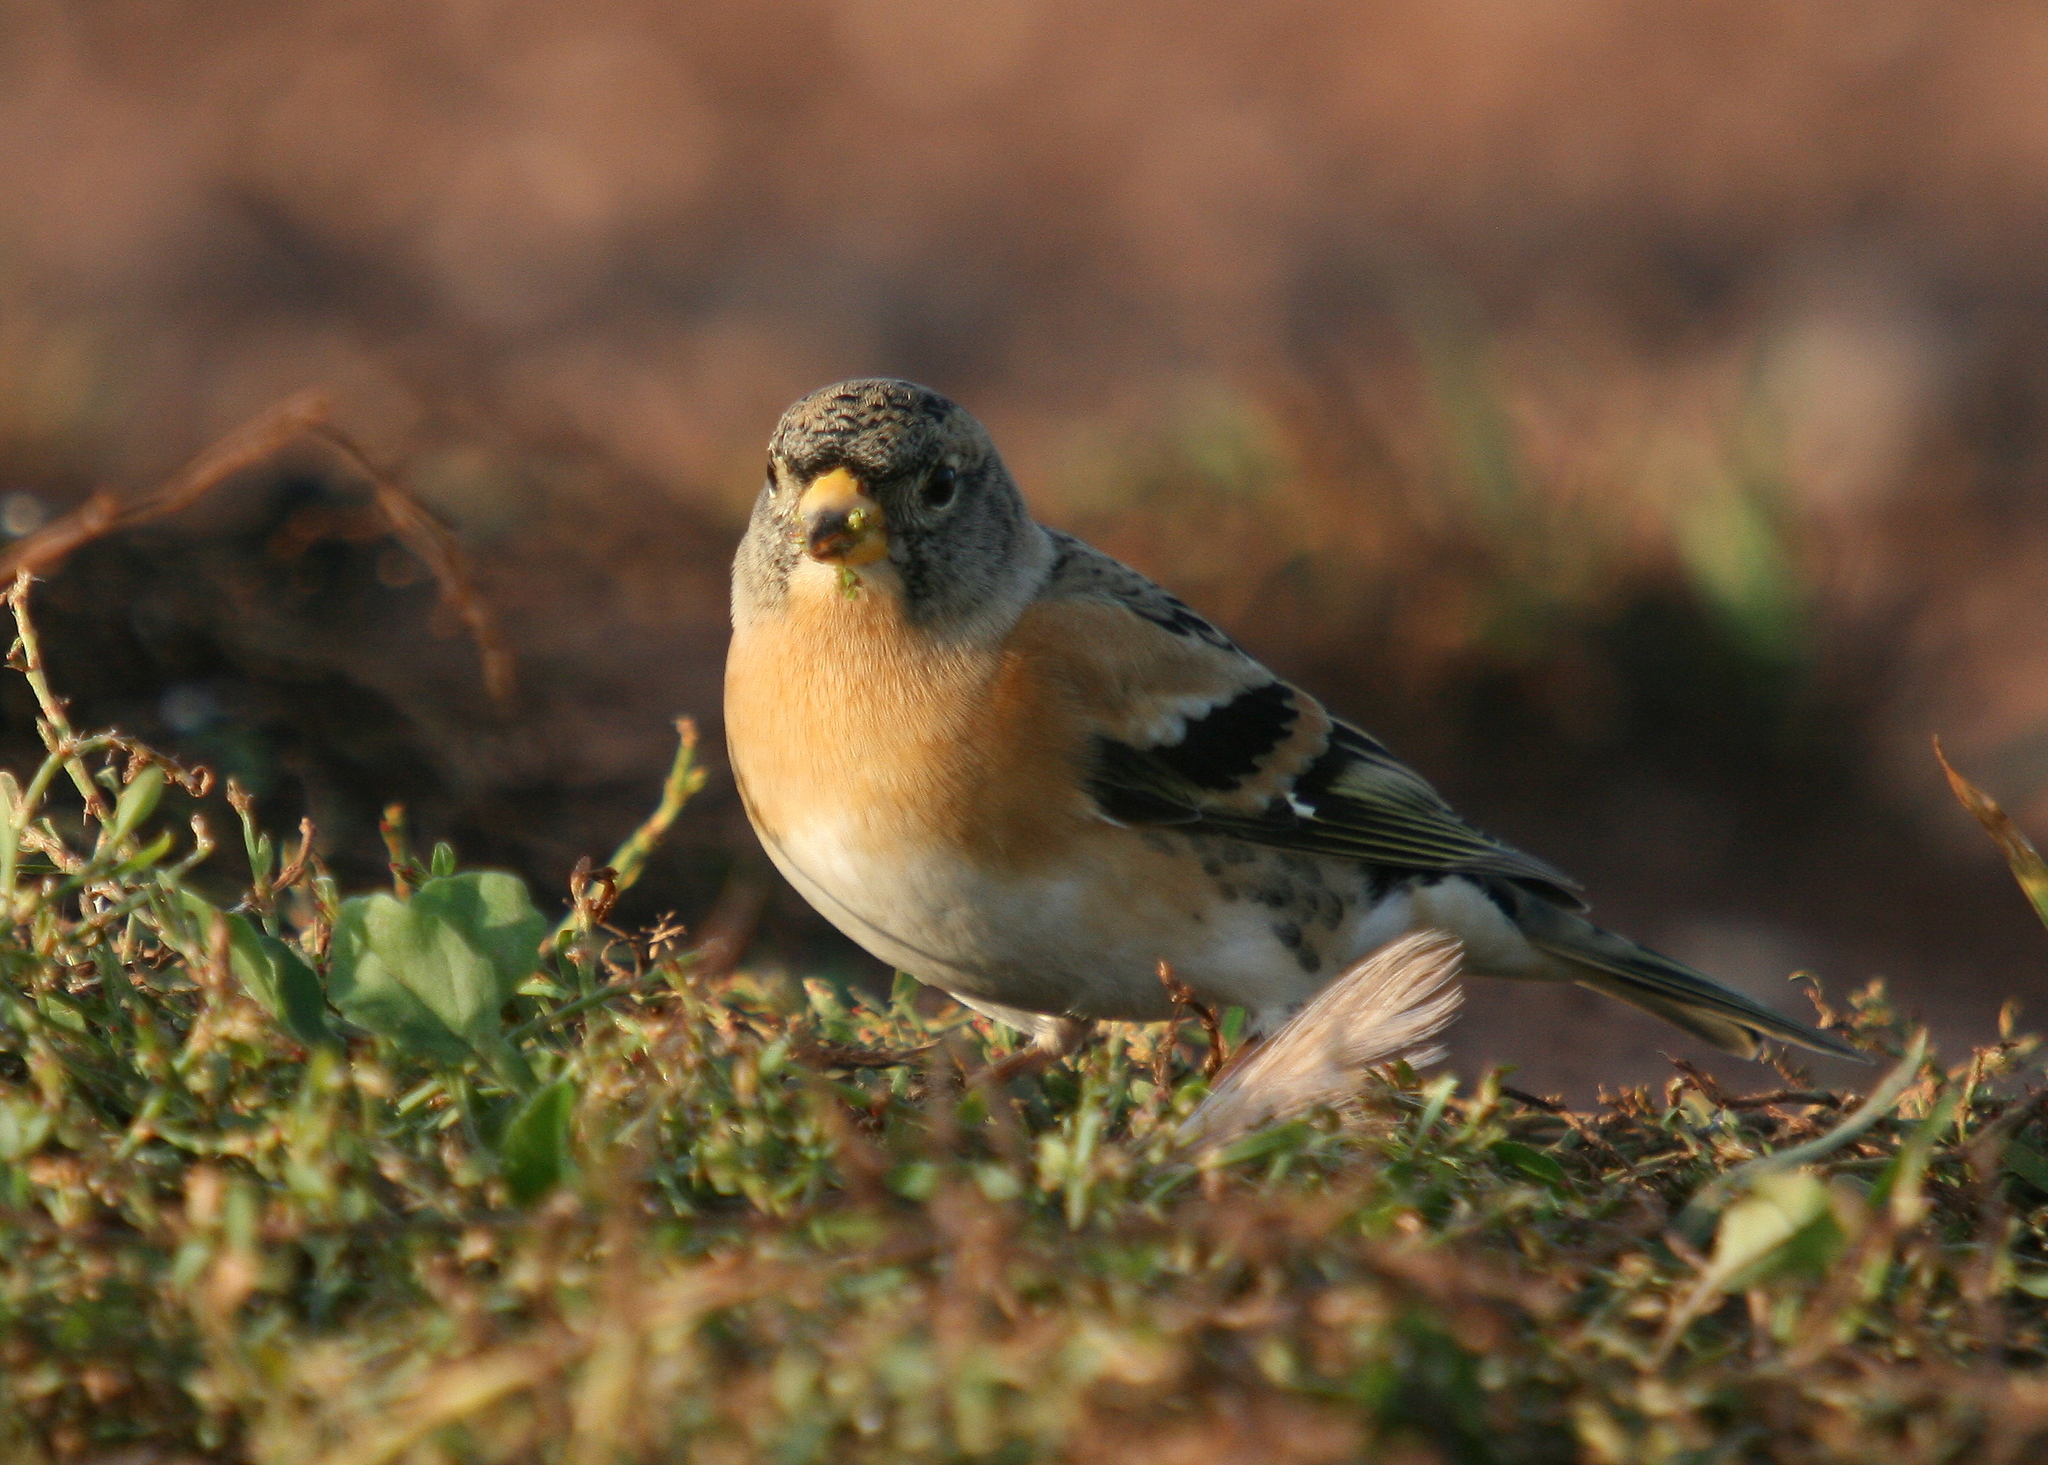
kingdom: Animalia
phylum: Chordata
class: Aves
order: Passeriformes
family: Fringillidae
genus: Fringilla
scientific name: Fringilla montifringilla
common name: Brambling
